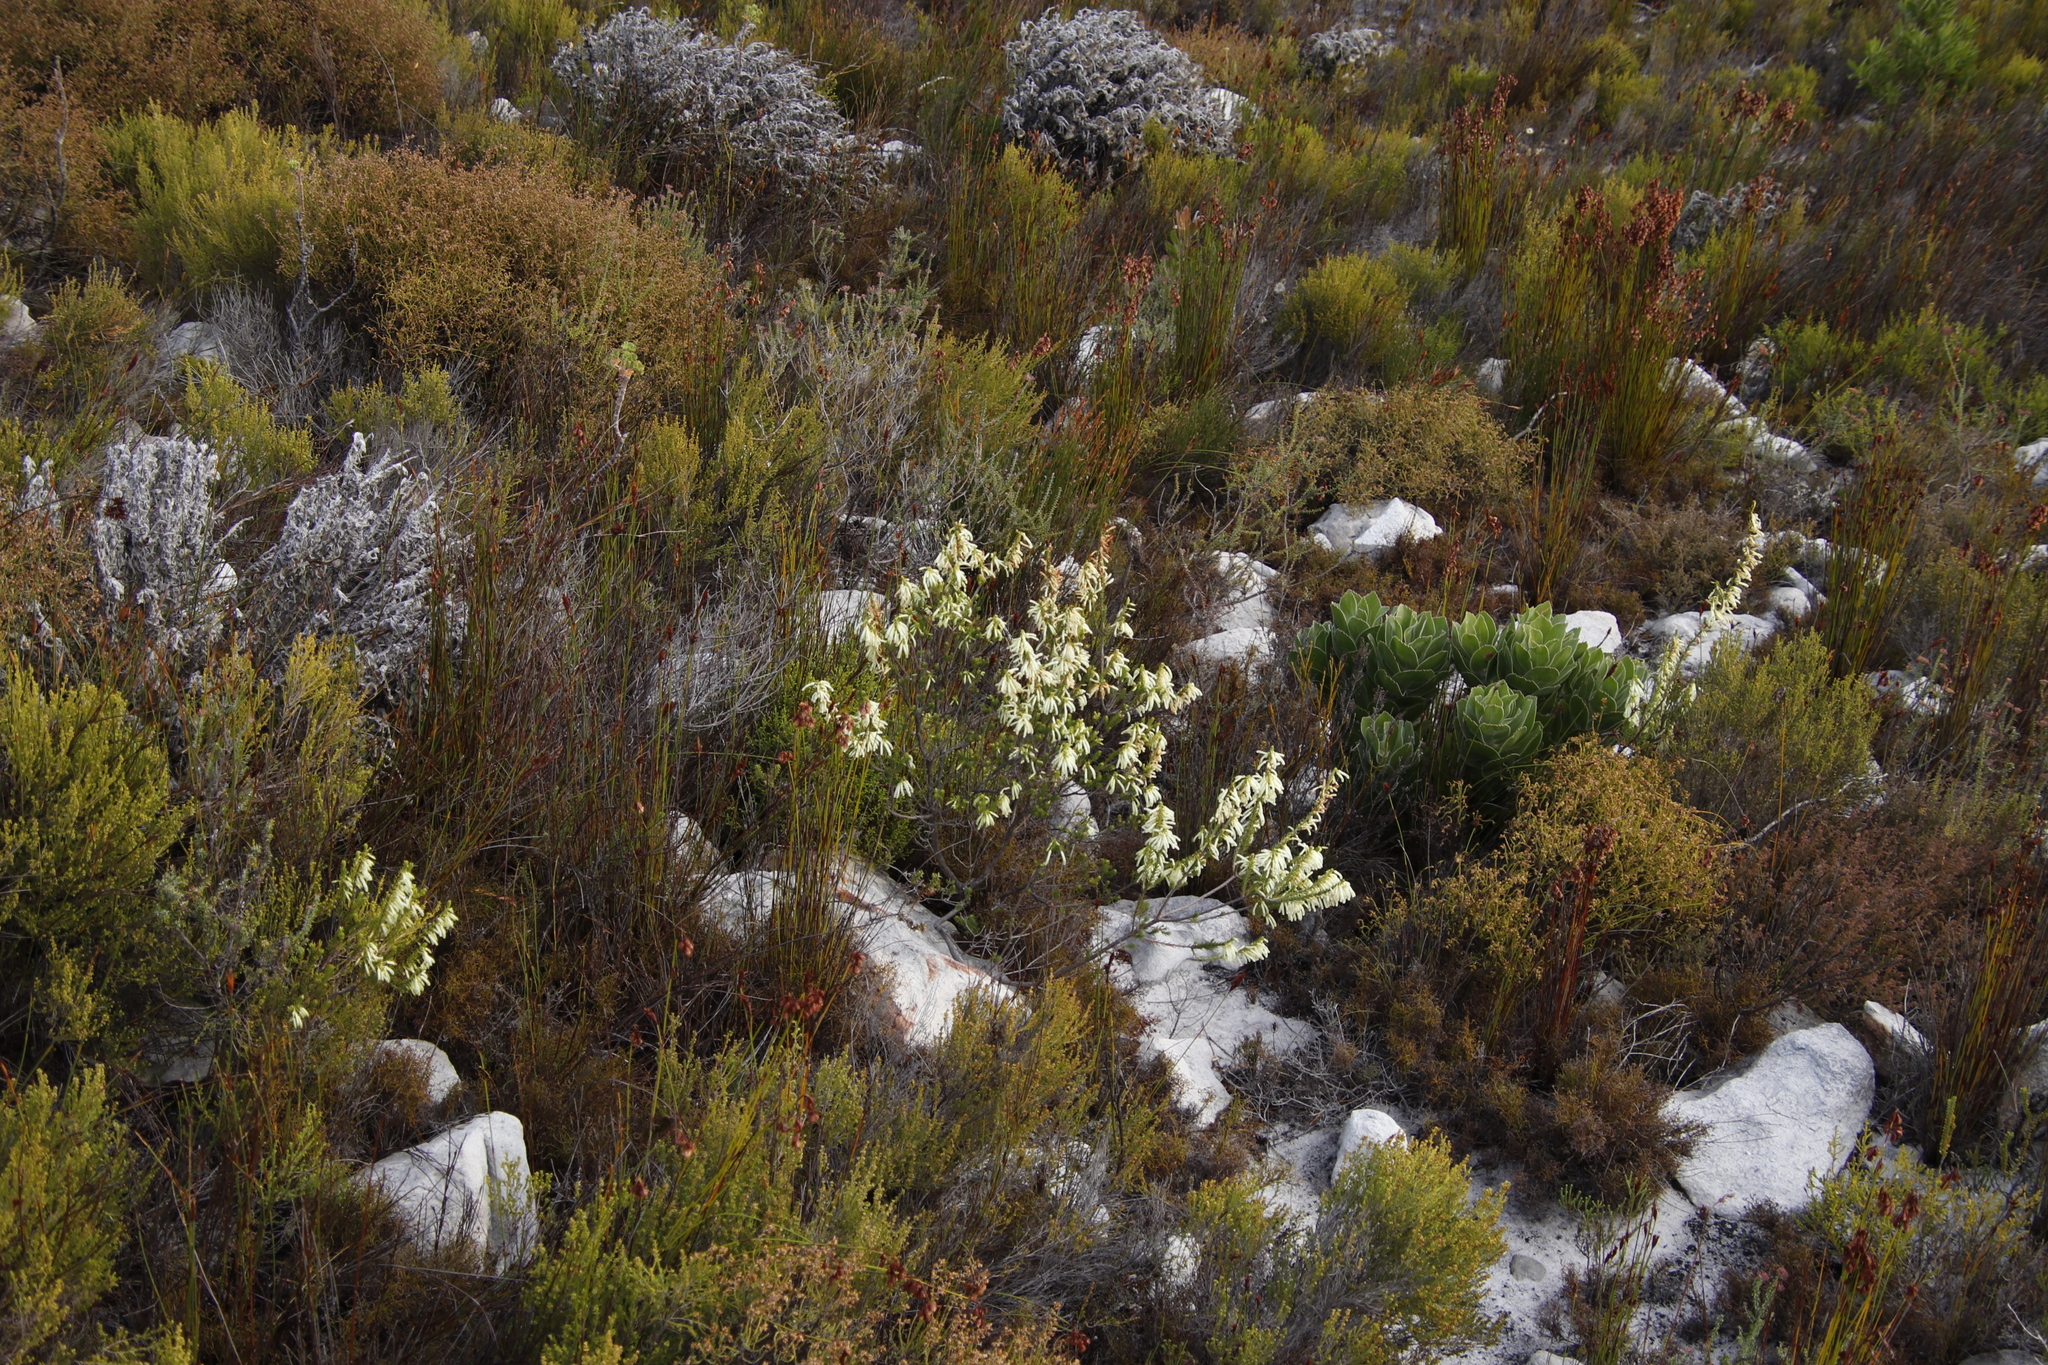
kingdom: Plantae
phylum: Tracheophyta
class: Magnoliopsida
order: Ericales
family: Ericaceae
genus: Erica
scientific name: Erica mammosa
